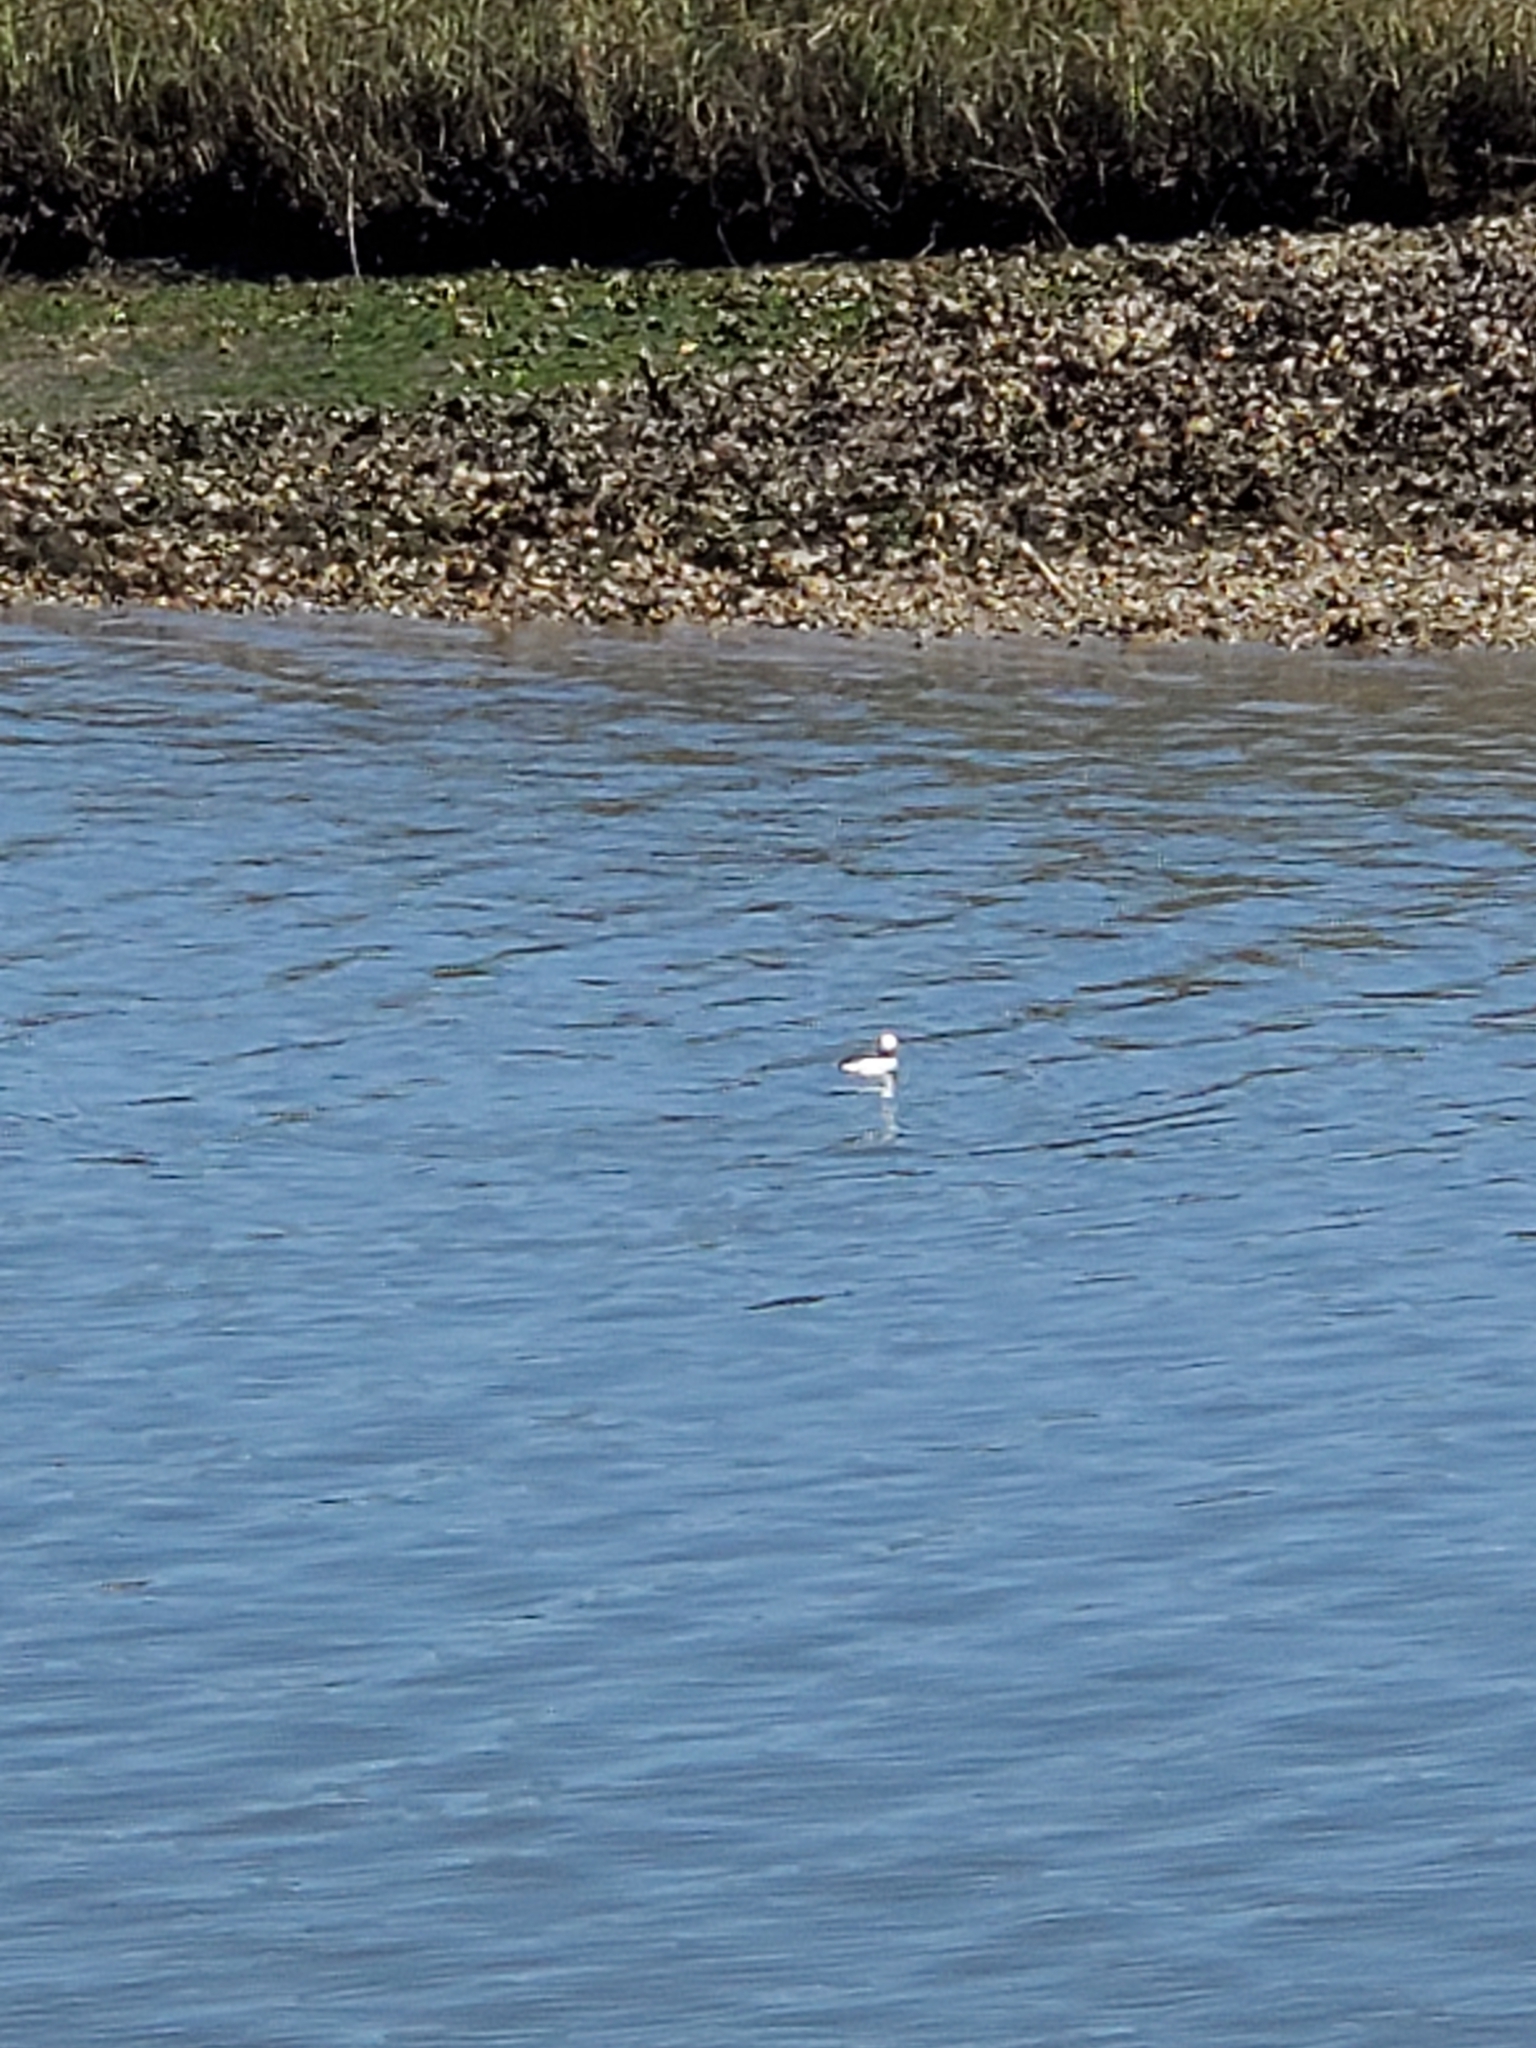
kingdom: Animalia
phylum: Chordata
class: Aves
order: Anseriformes
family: Anatidae
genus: Bucephala
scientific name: Bucephala albeola
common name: Bufflehead
